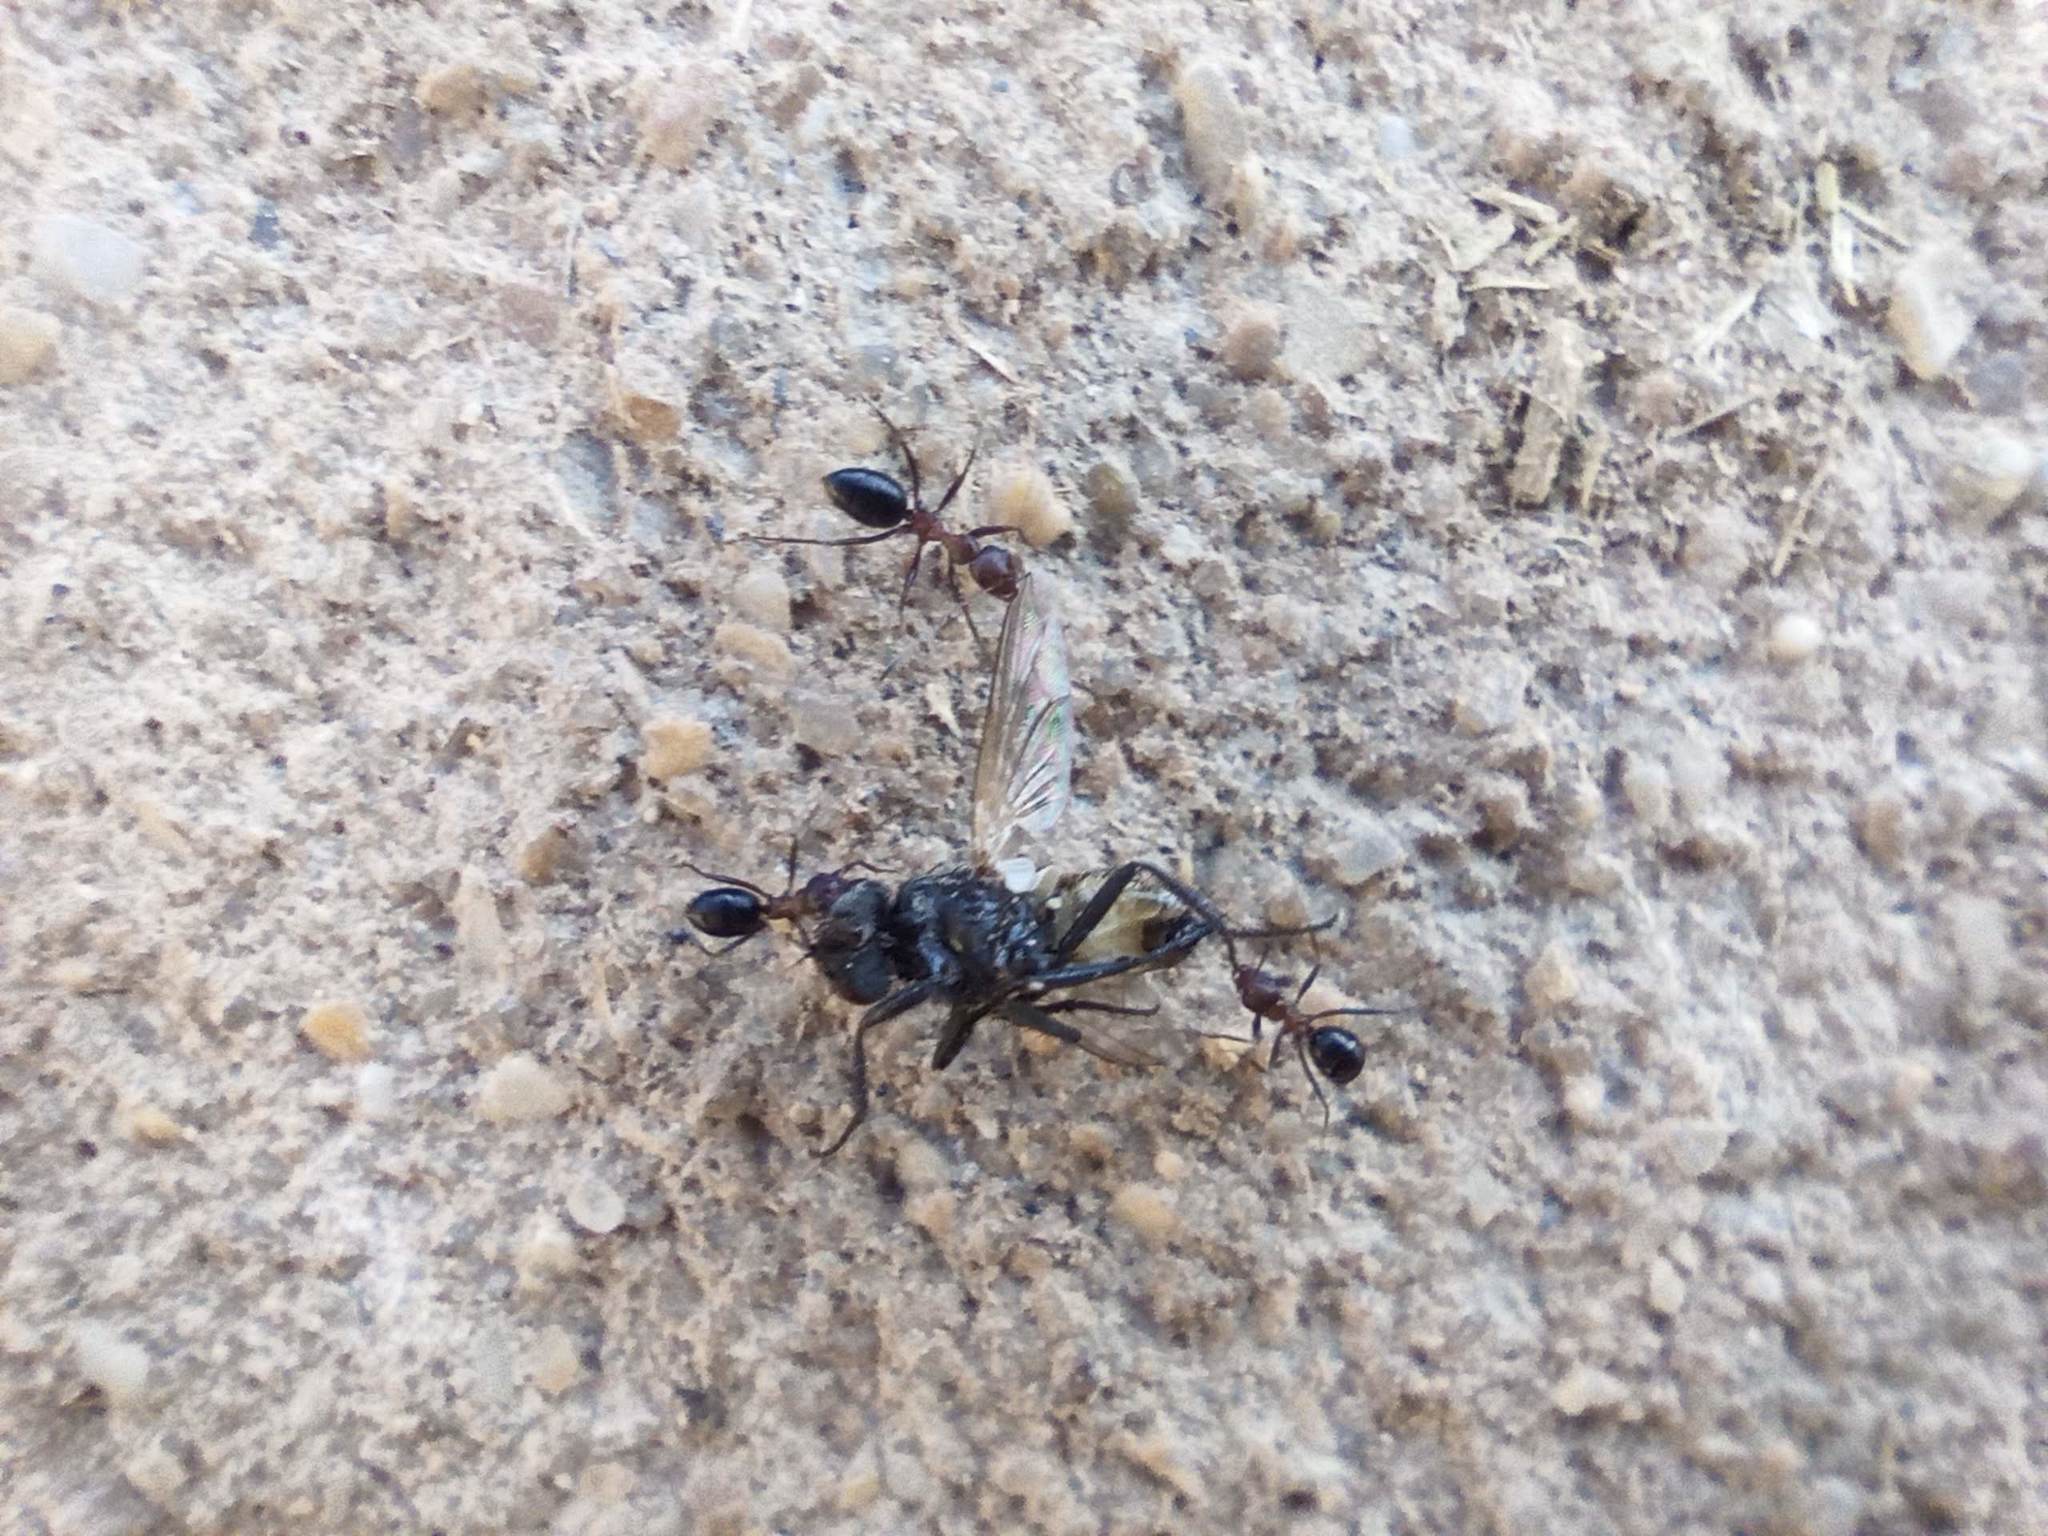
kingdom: Animalia
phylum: Arthropoda
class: Insecta
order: Hymenoptera
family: Formicidae
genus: Lepisiota
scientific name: Lepisiota frauenfeldi
